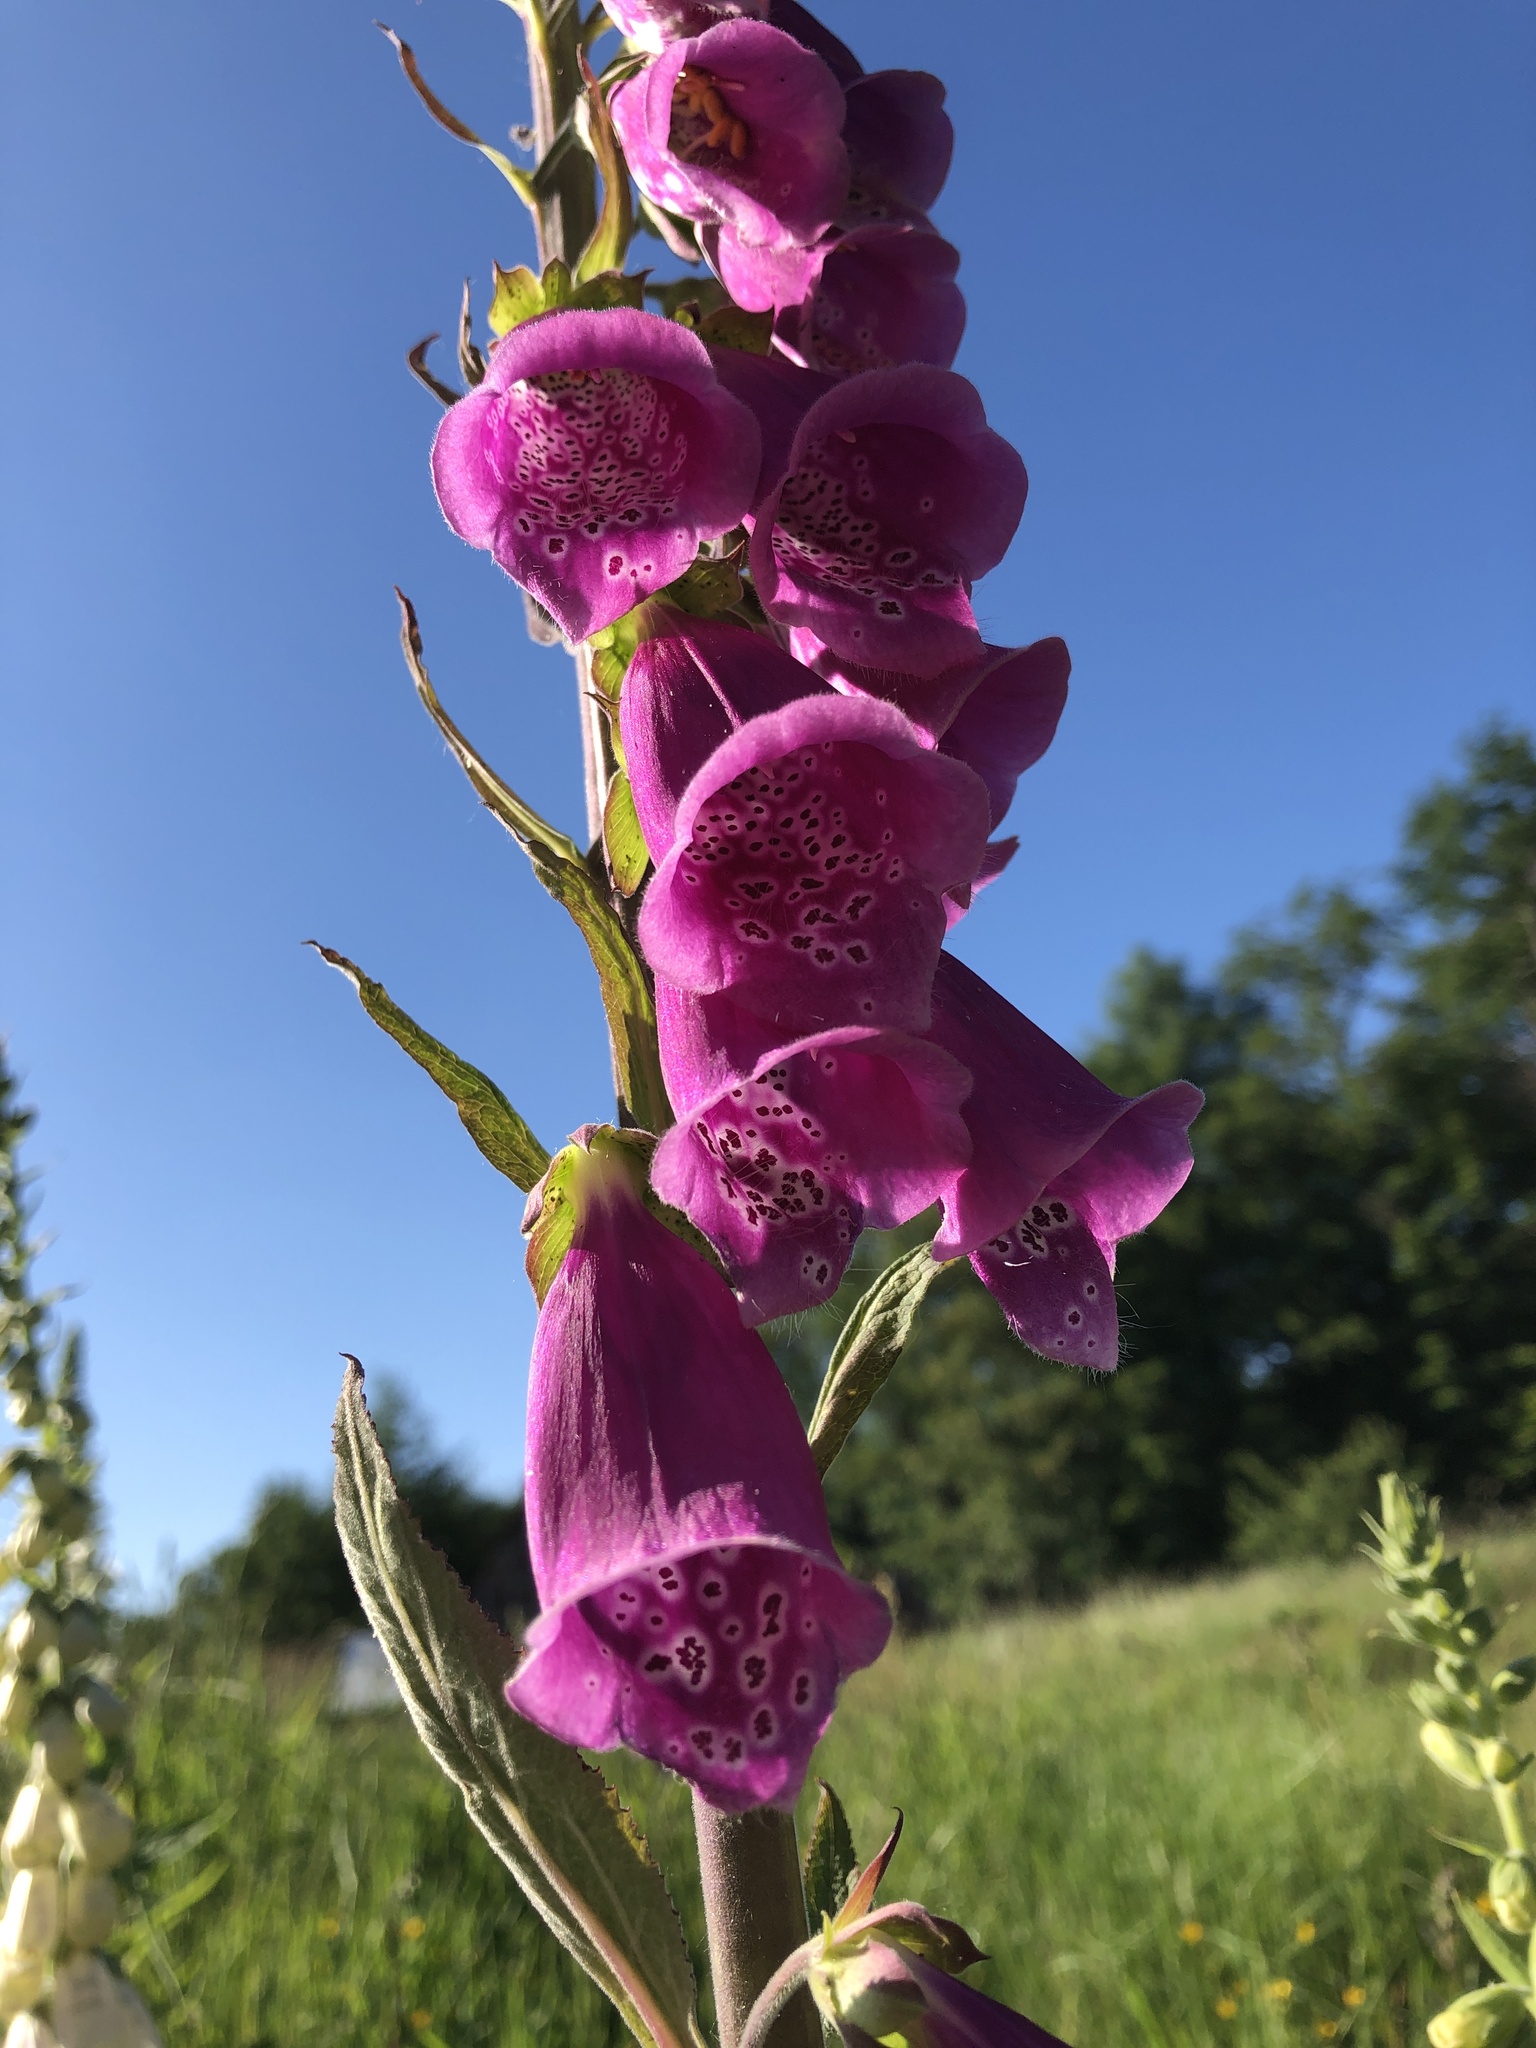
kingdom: Plantae
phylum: Tracheophyta
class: Magnoliopsida
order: Lamiales
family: Plantaginaceae
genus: Digitalis
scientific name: Digitalis purpurea
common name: Foxglove
